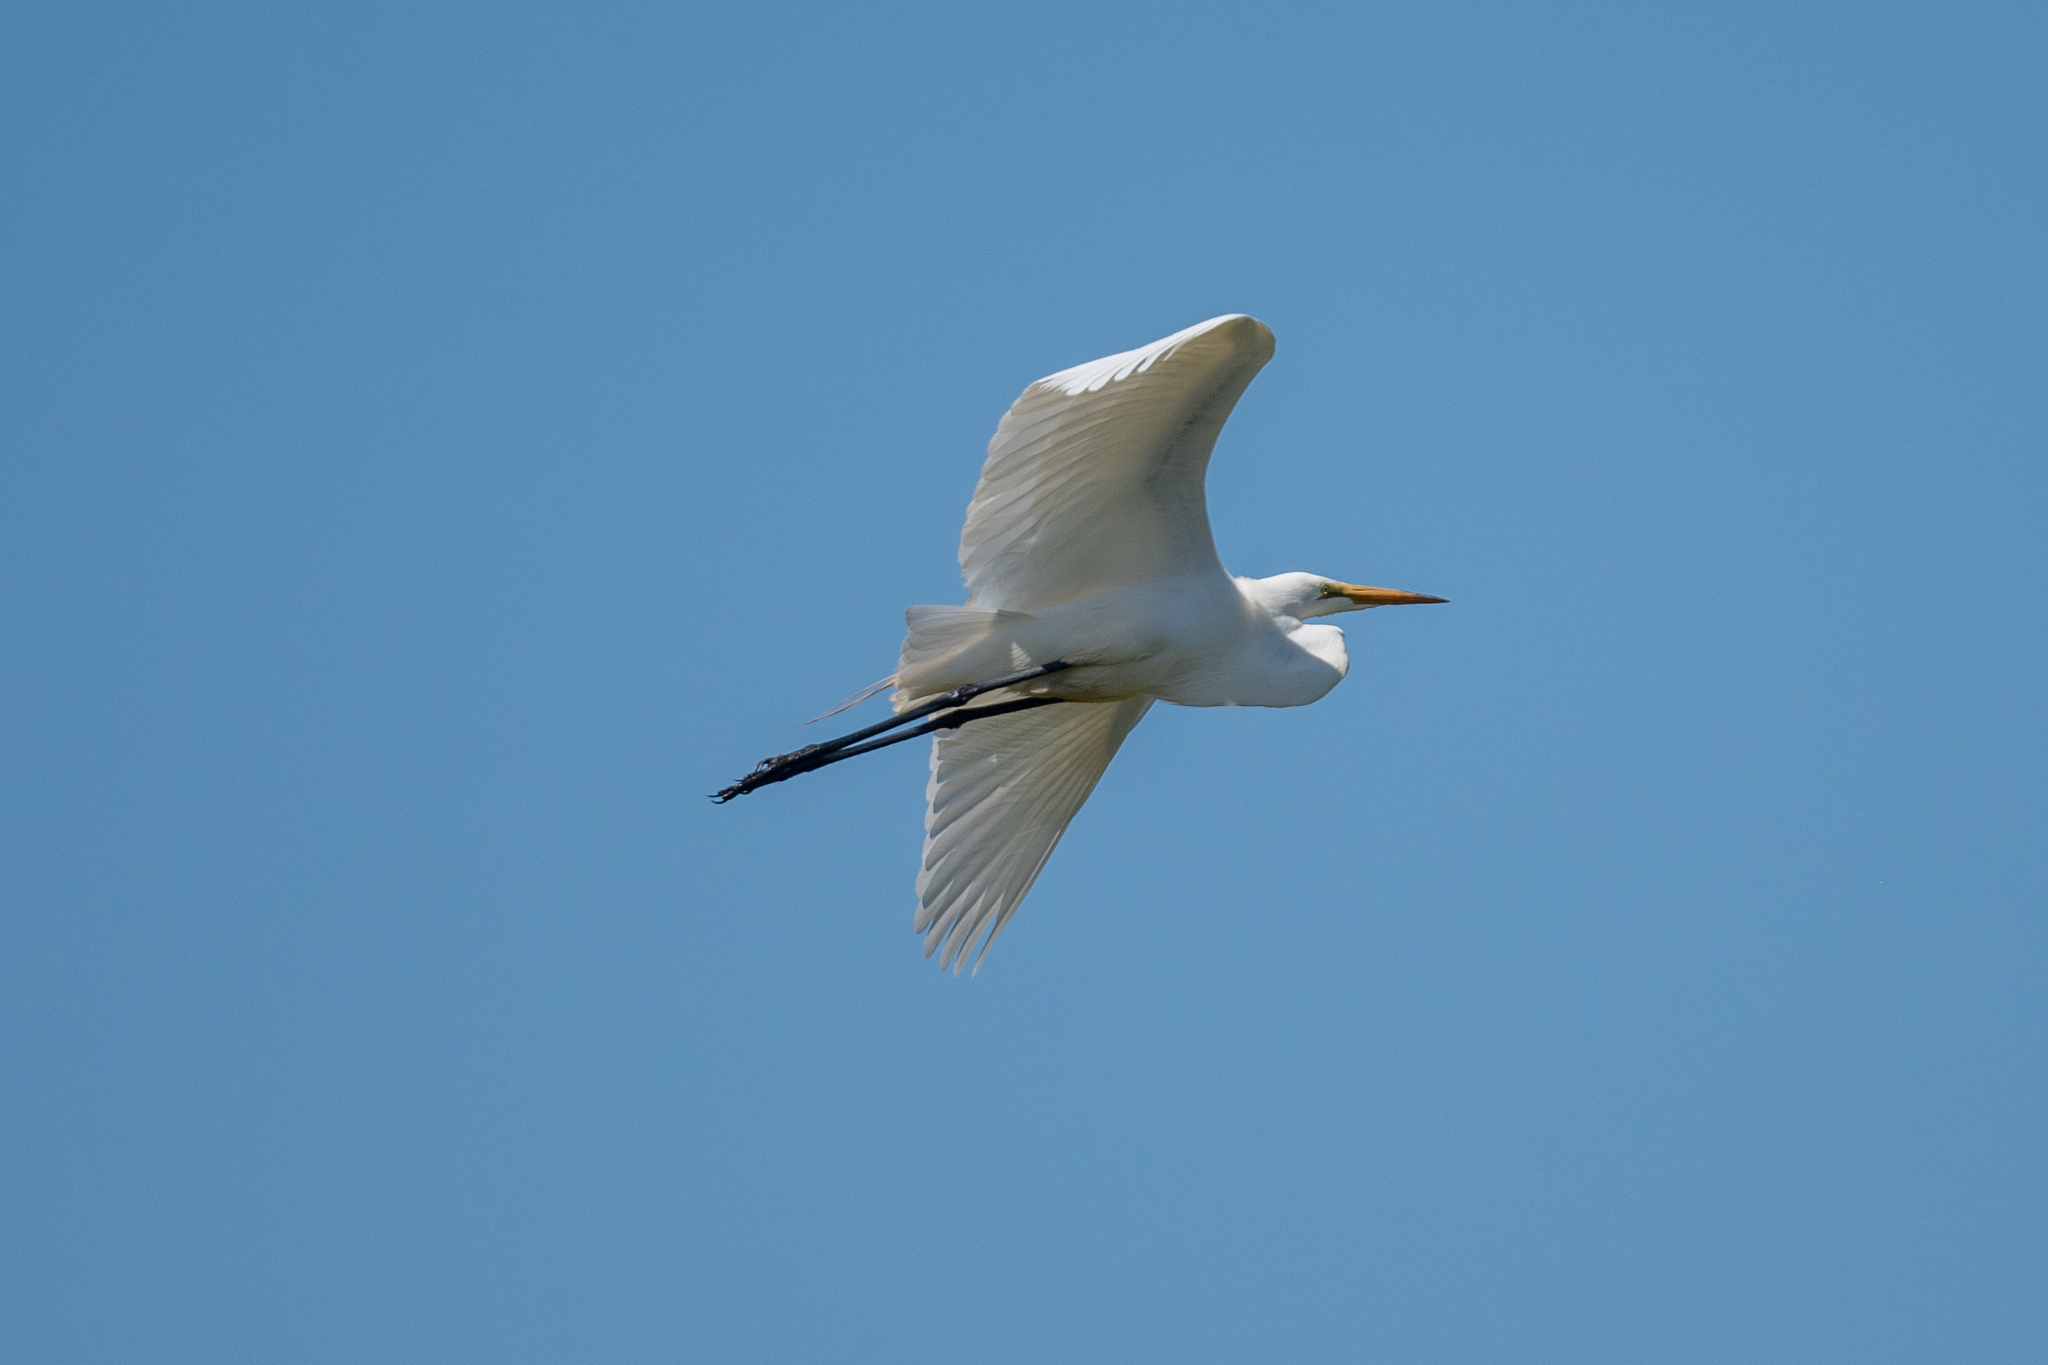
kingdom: Animalia
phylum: Chordata
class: Aves
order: Pelecaniformes
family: Ardeidae
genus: Ardea
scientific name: Ardea alba
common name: Great egret
